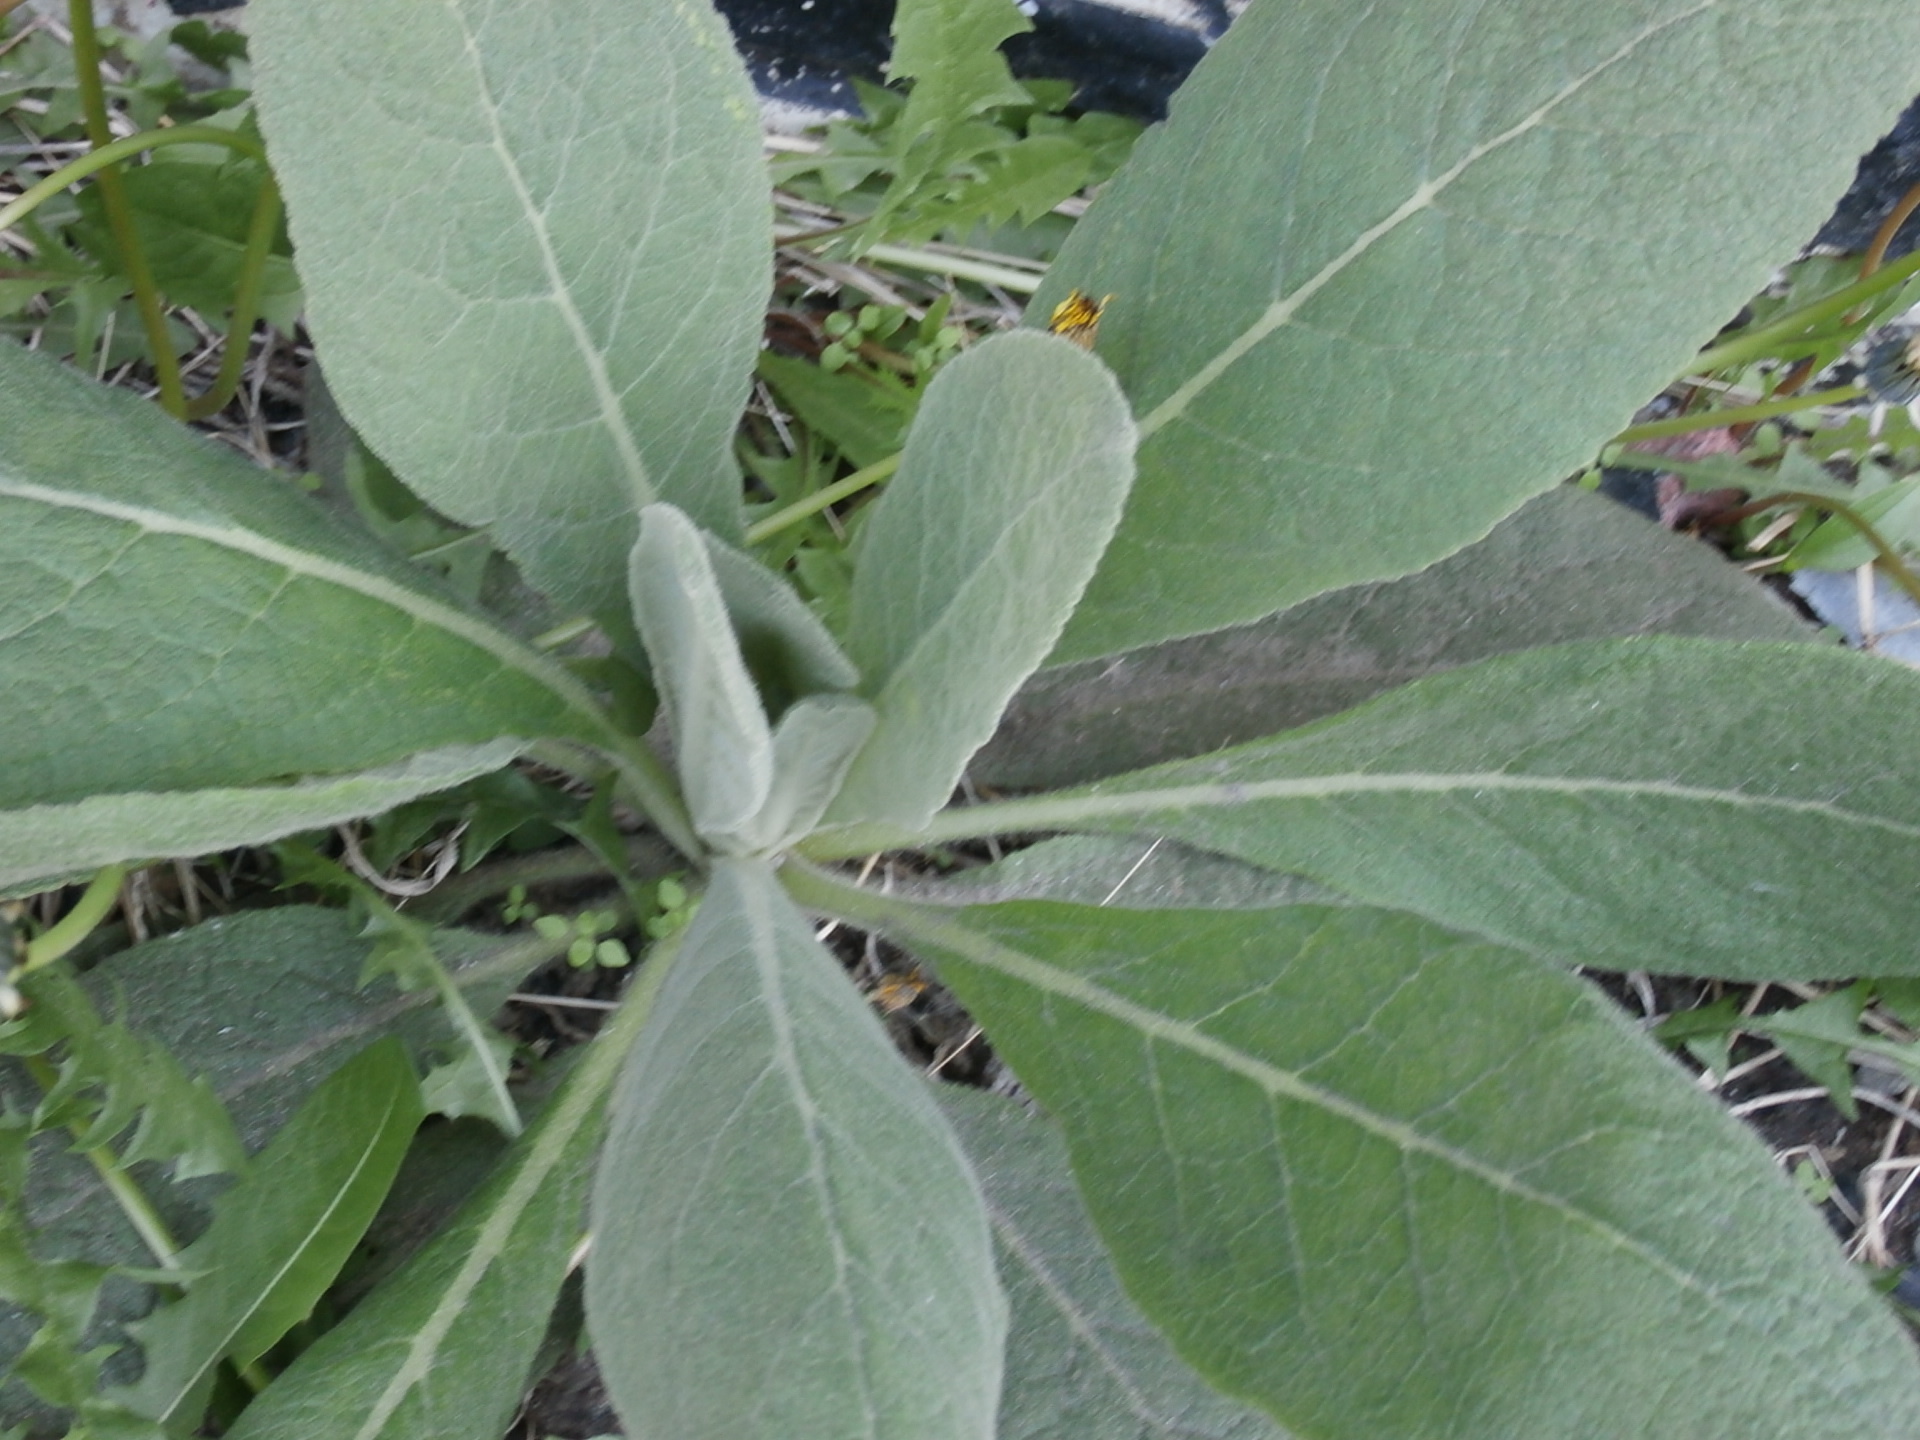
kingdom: Plantae
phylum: Tracheophyta
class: Magnoliopsida
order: Lamiales
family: Scrophulariaceae
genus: Verbascum
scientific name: Verbascum thapsus
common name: Common mullein
